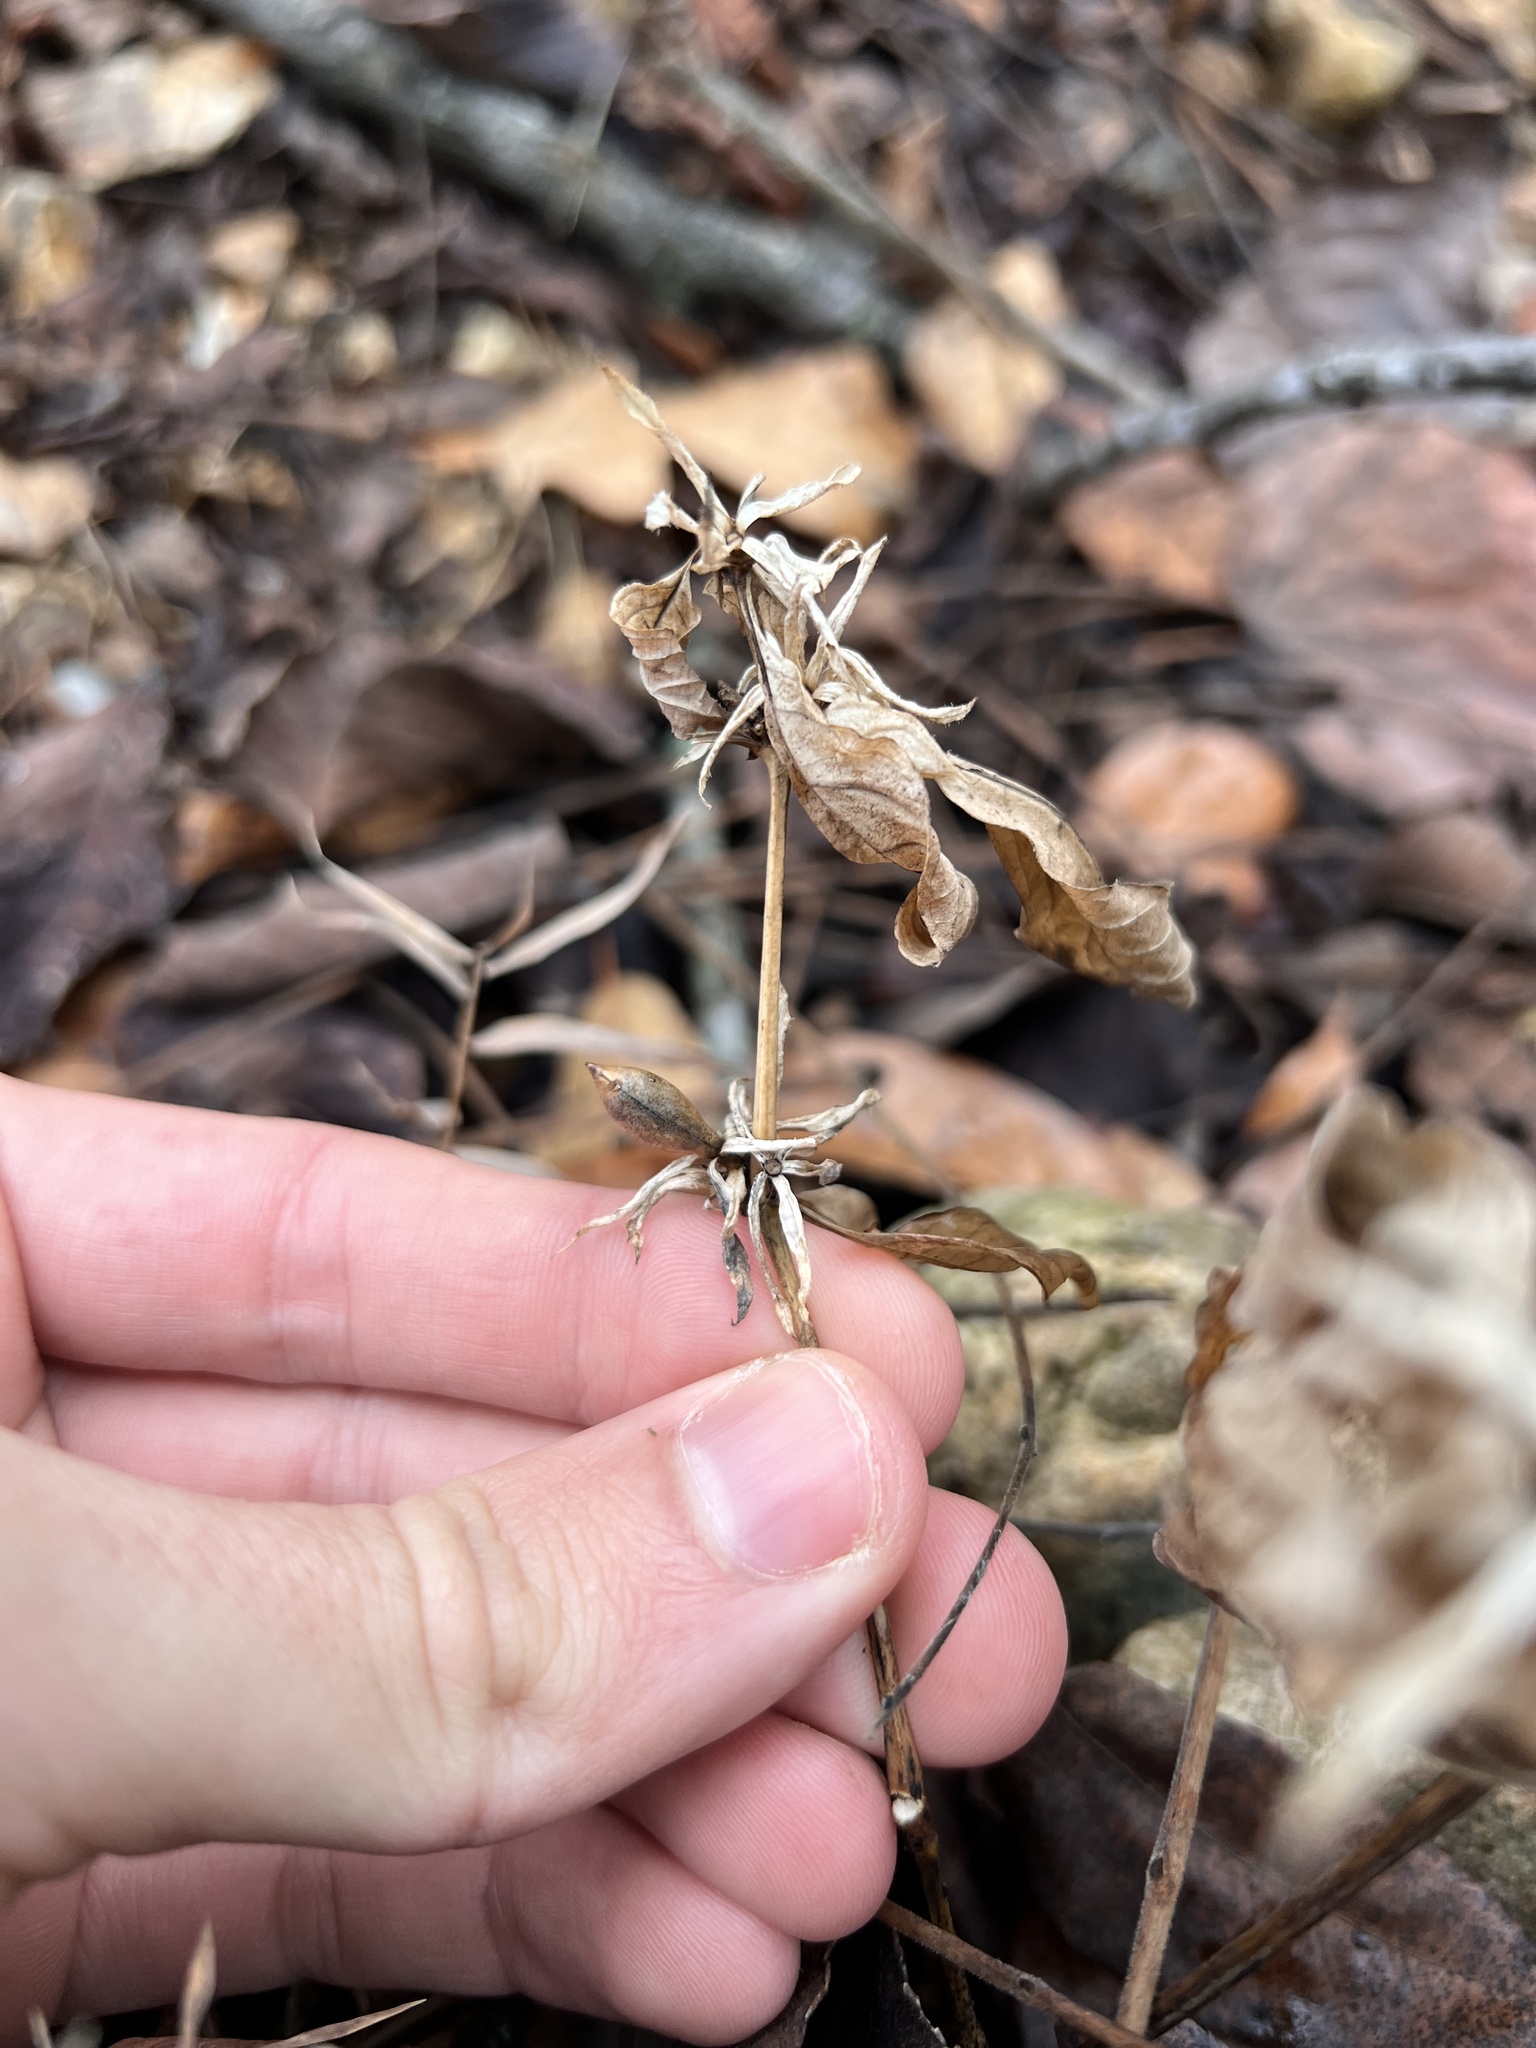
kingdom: Plantae
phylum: Tracheophyta
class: Magnoliopsida
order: Lamiales
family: Acanthaceae
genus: Ruellia
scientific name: Ruellia strepens
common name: Limestone wild petunia
